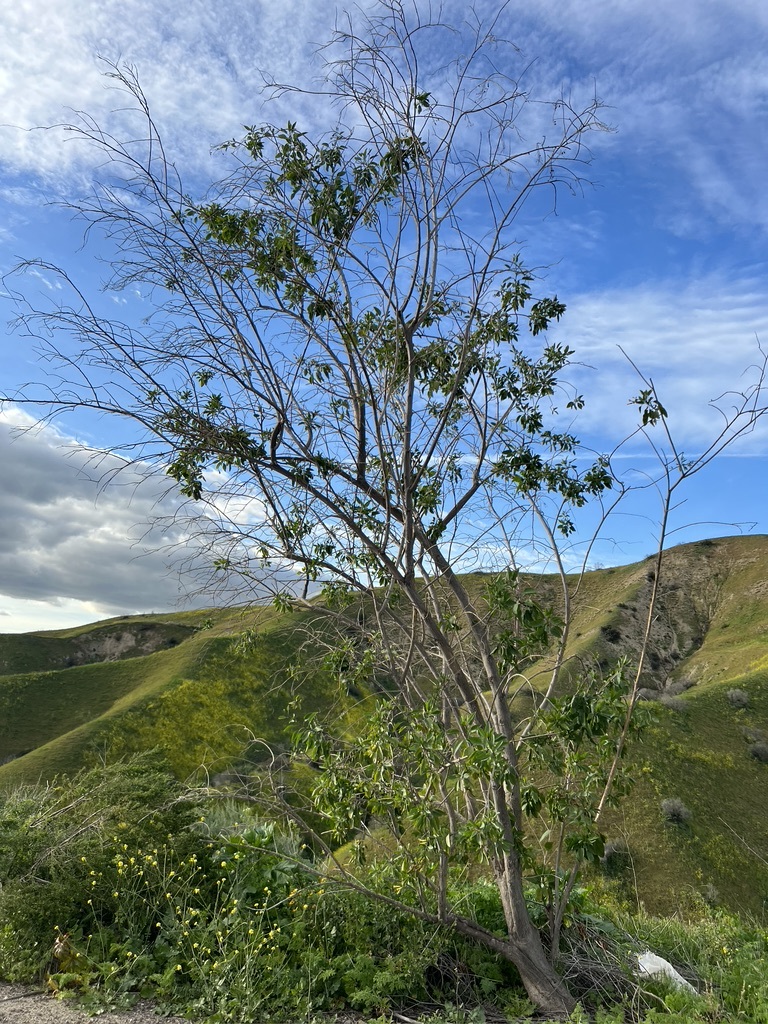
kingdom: Plantae
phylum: Tracheophyta
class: Magnoliopsida
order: Solanales
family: Solanaceae
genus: Nicotiana
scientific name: Nicotiana glauca
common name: Tree tobacco
